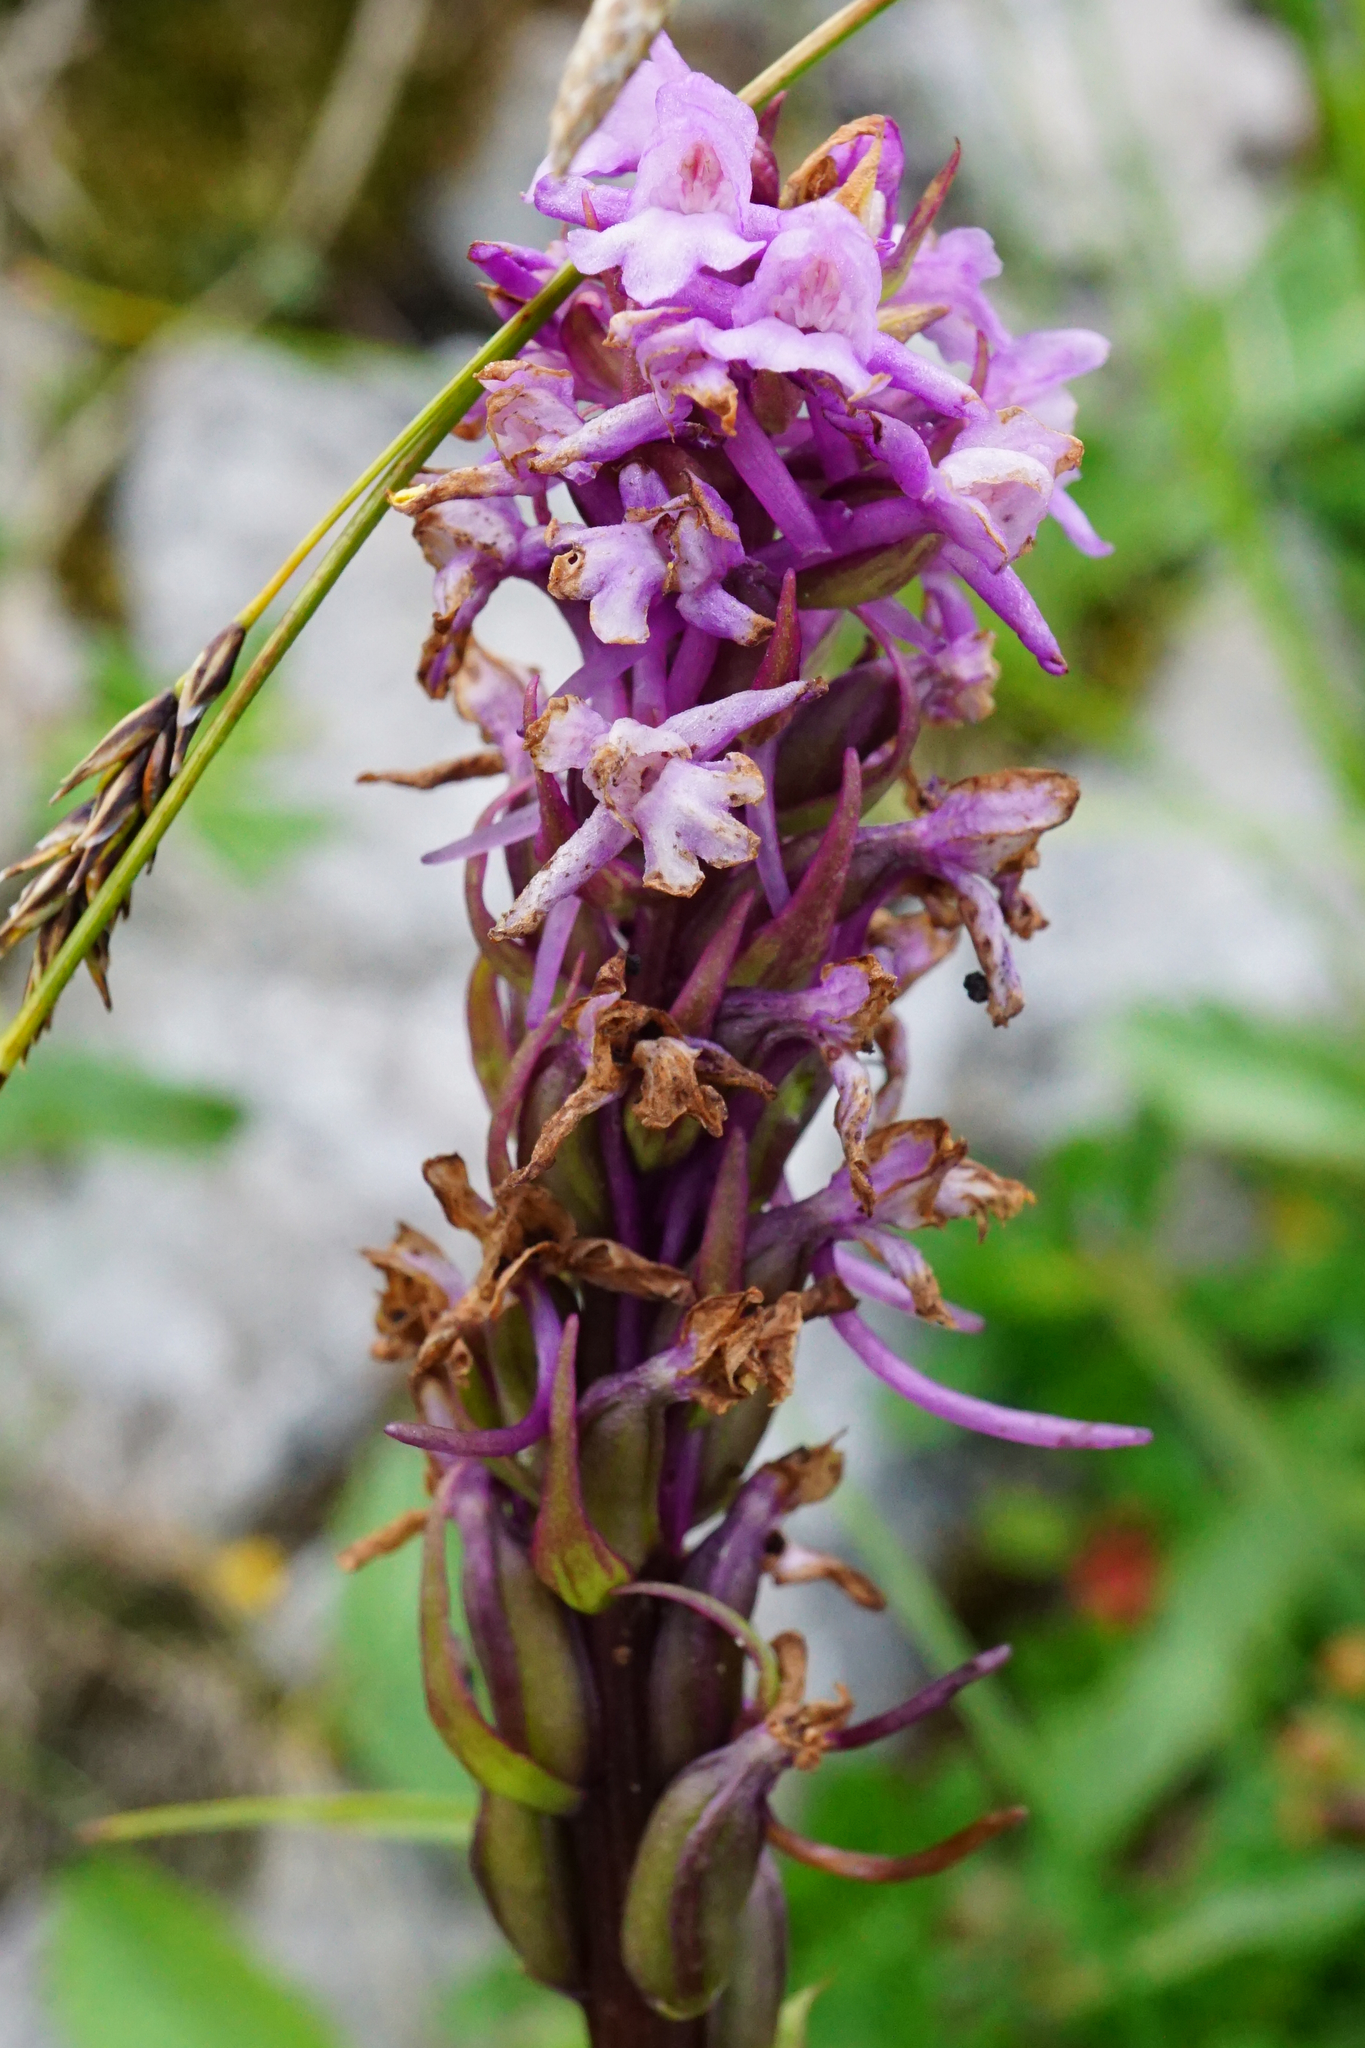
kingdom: Plantae
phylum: Tracheophyta
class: Liliopsida
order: Asparagales
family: Orchidaceae
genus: Gymnadenia
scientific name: Gymnadenia conopsea
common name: Fragrant orchid
